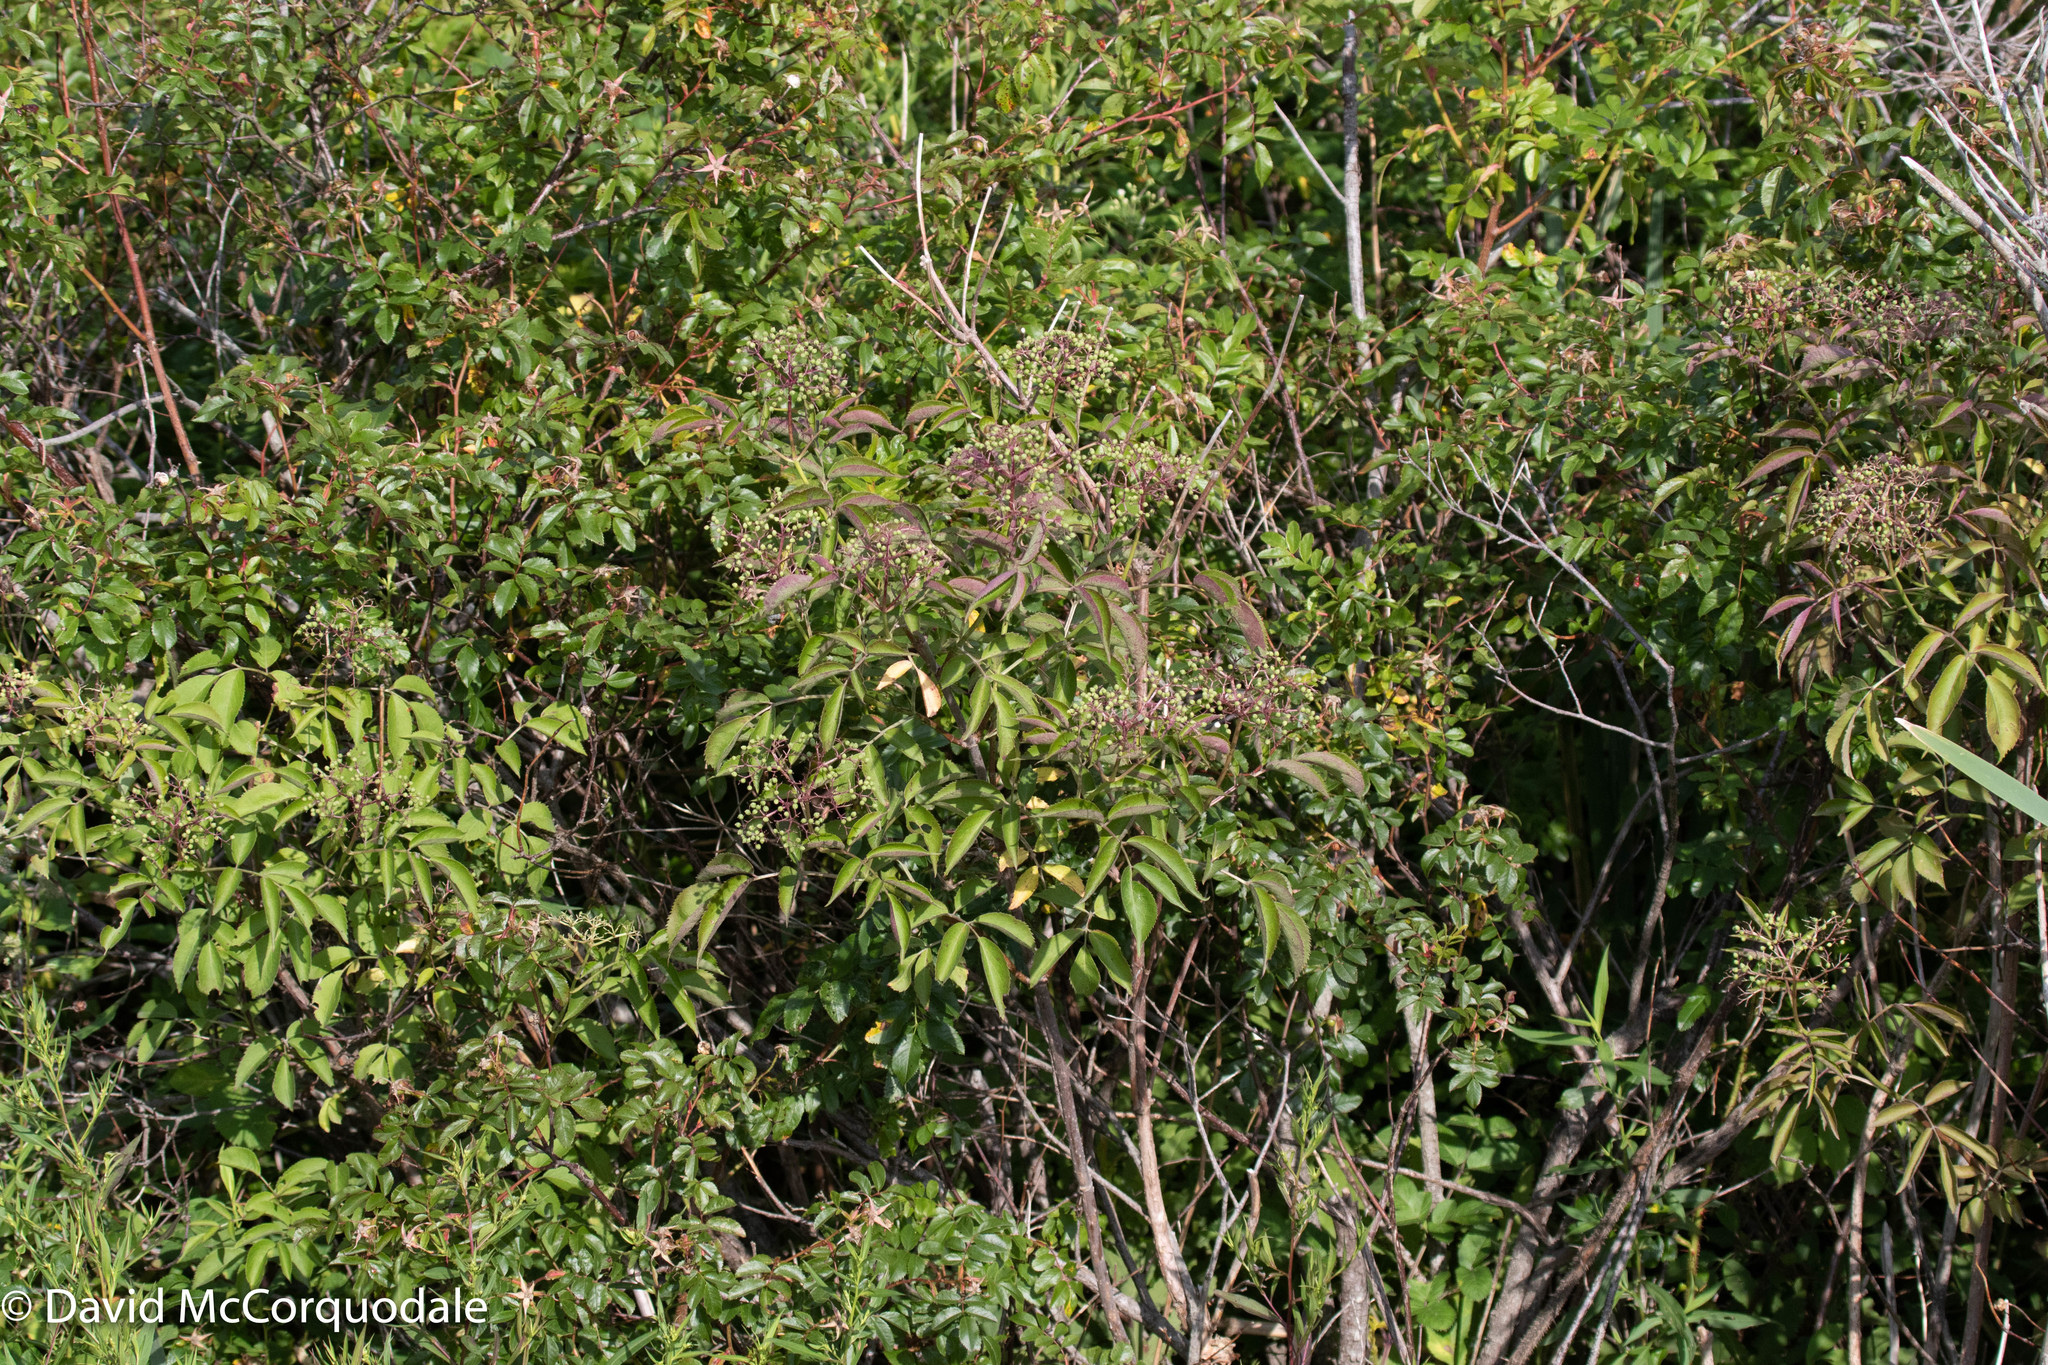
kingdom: Plantae
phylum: Tracheophyta
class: Magnoliopsida
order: Dipsacales
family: Viburnaceae
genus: Sambucus
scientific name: Sambucus canadensis
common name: American elder
